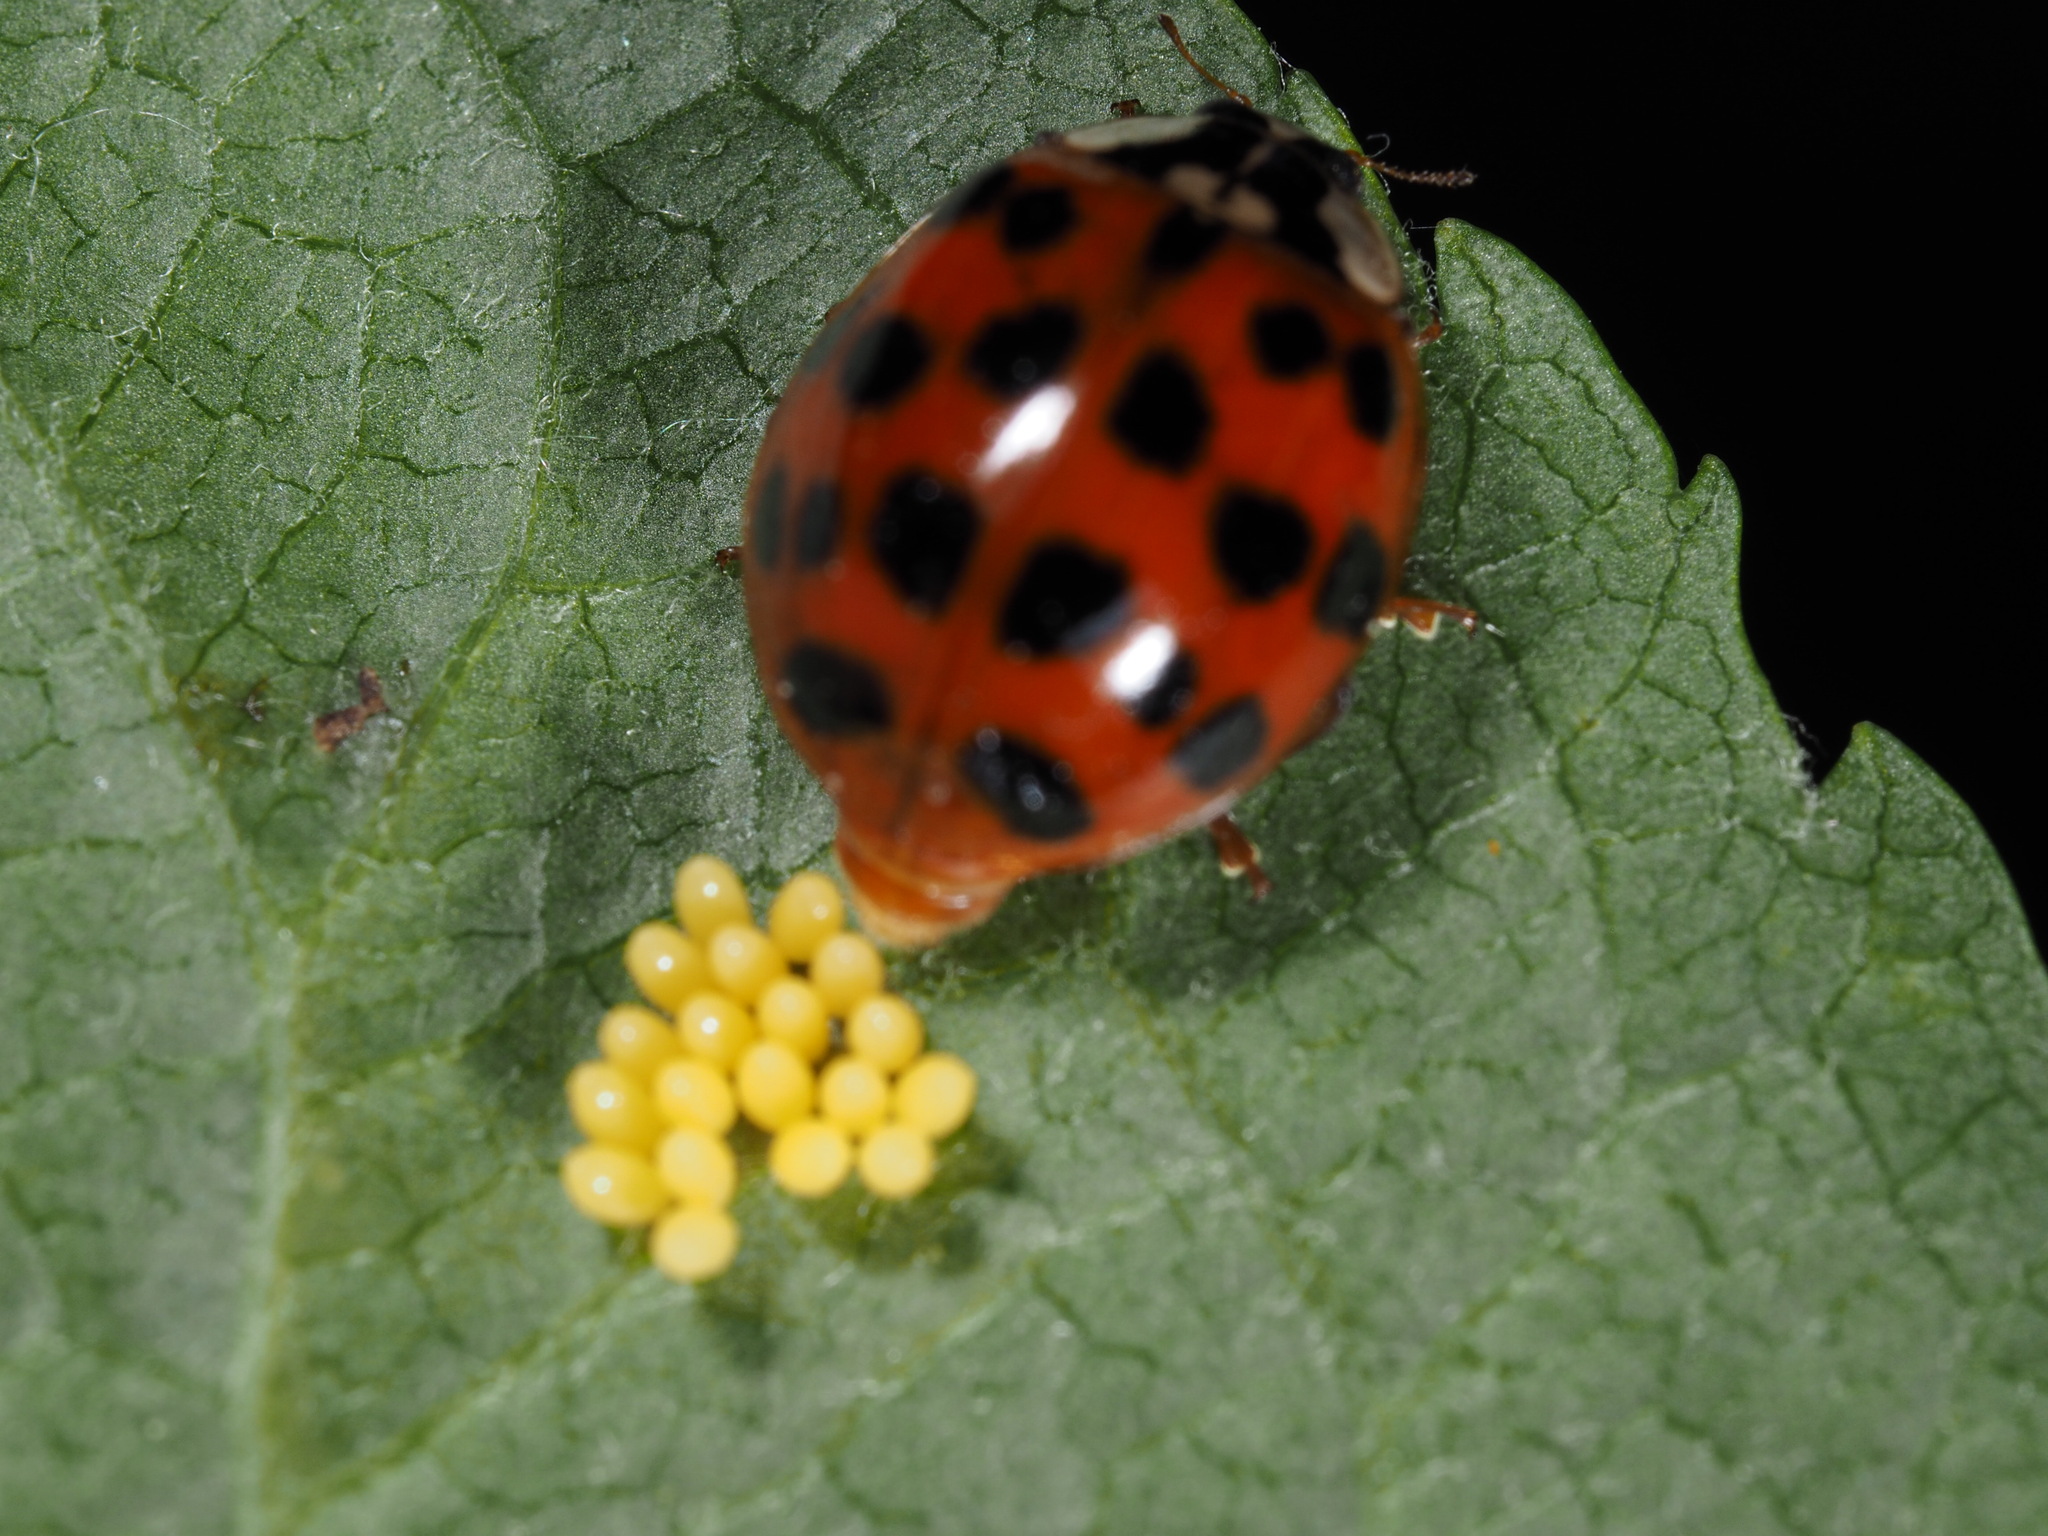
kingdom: Animalia
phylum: Arthropoda
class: Insecta
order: Coleoptera
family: Coccinellidae
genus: Harmonia
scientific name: Harmonia axyridis
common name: Harlequin ladybird
